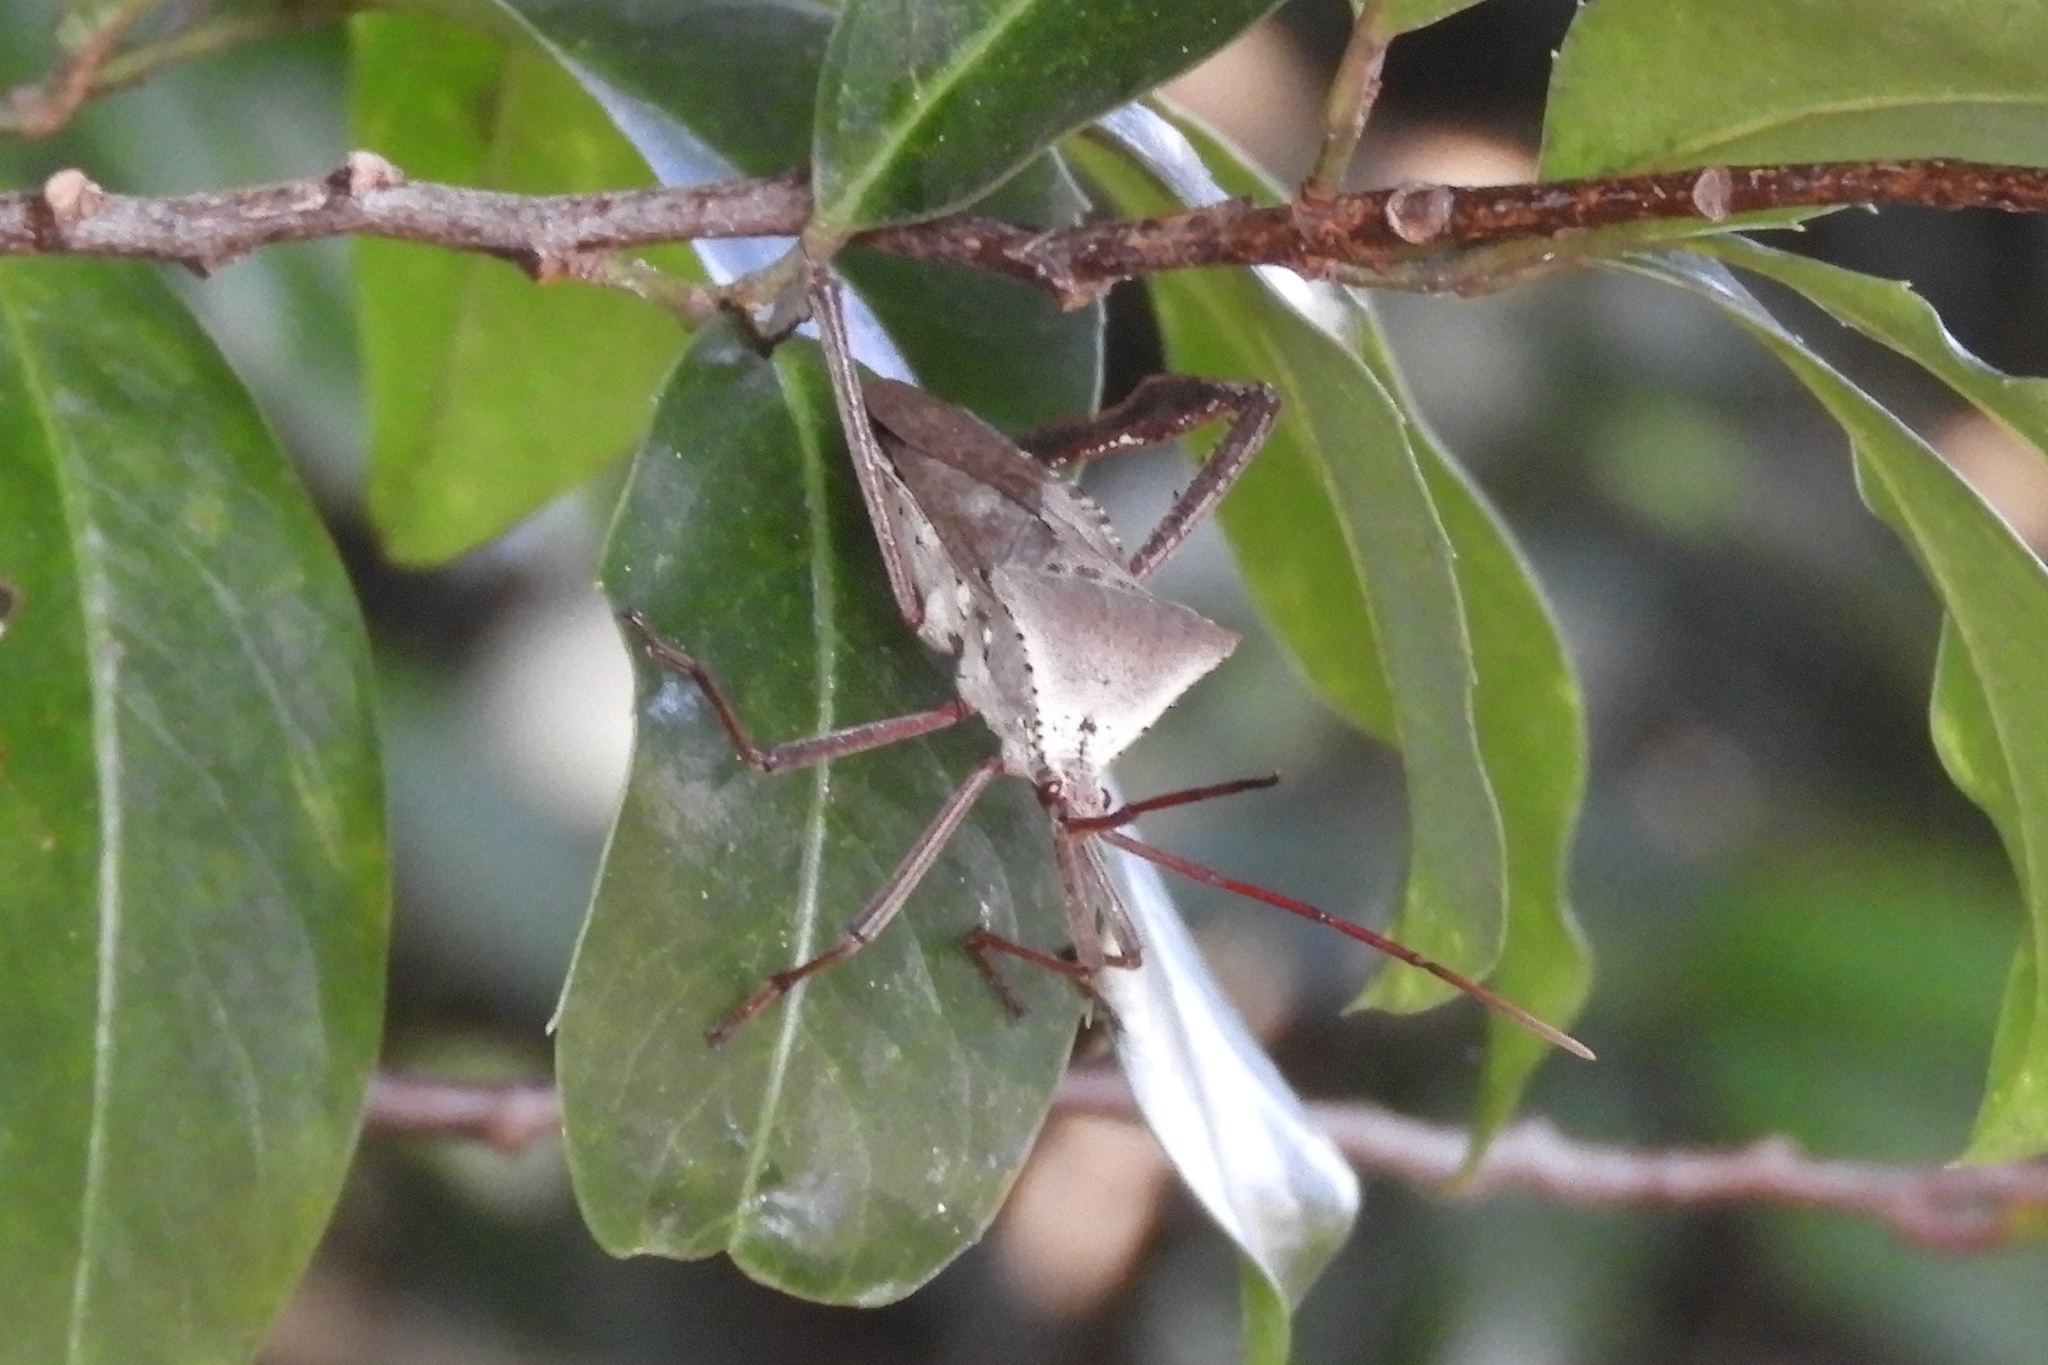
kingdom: Animalia
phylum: Arthropoda
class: Insecta
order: Hemiptera
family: Coreidae
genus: Acanthocephala
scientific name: Acanthocephala declivis
